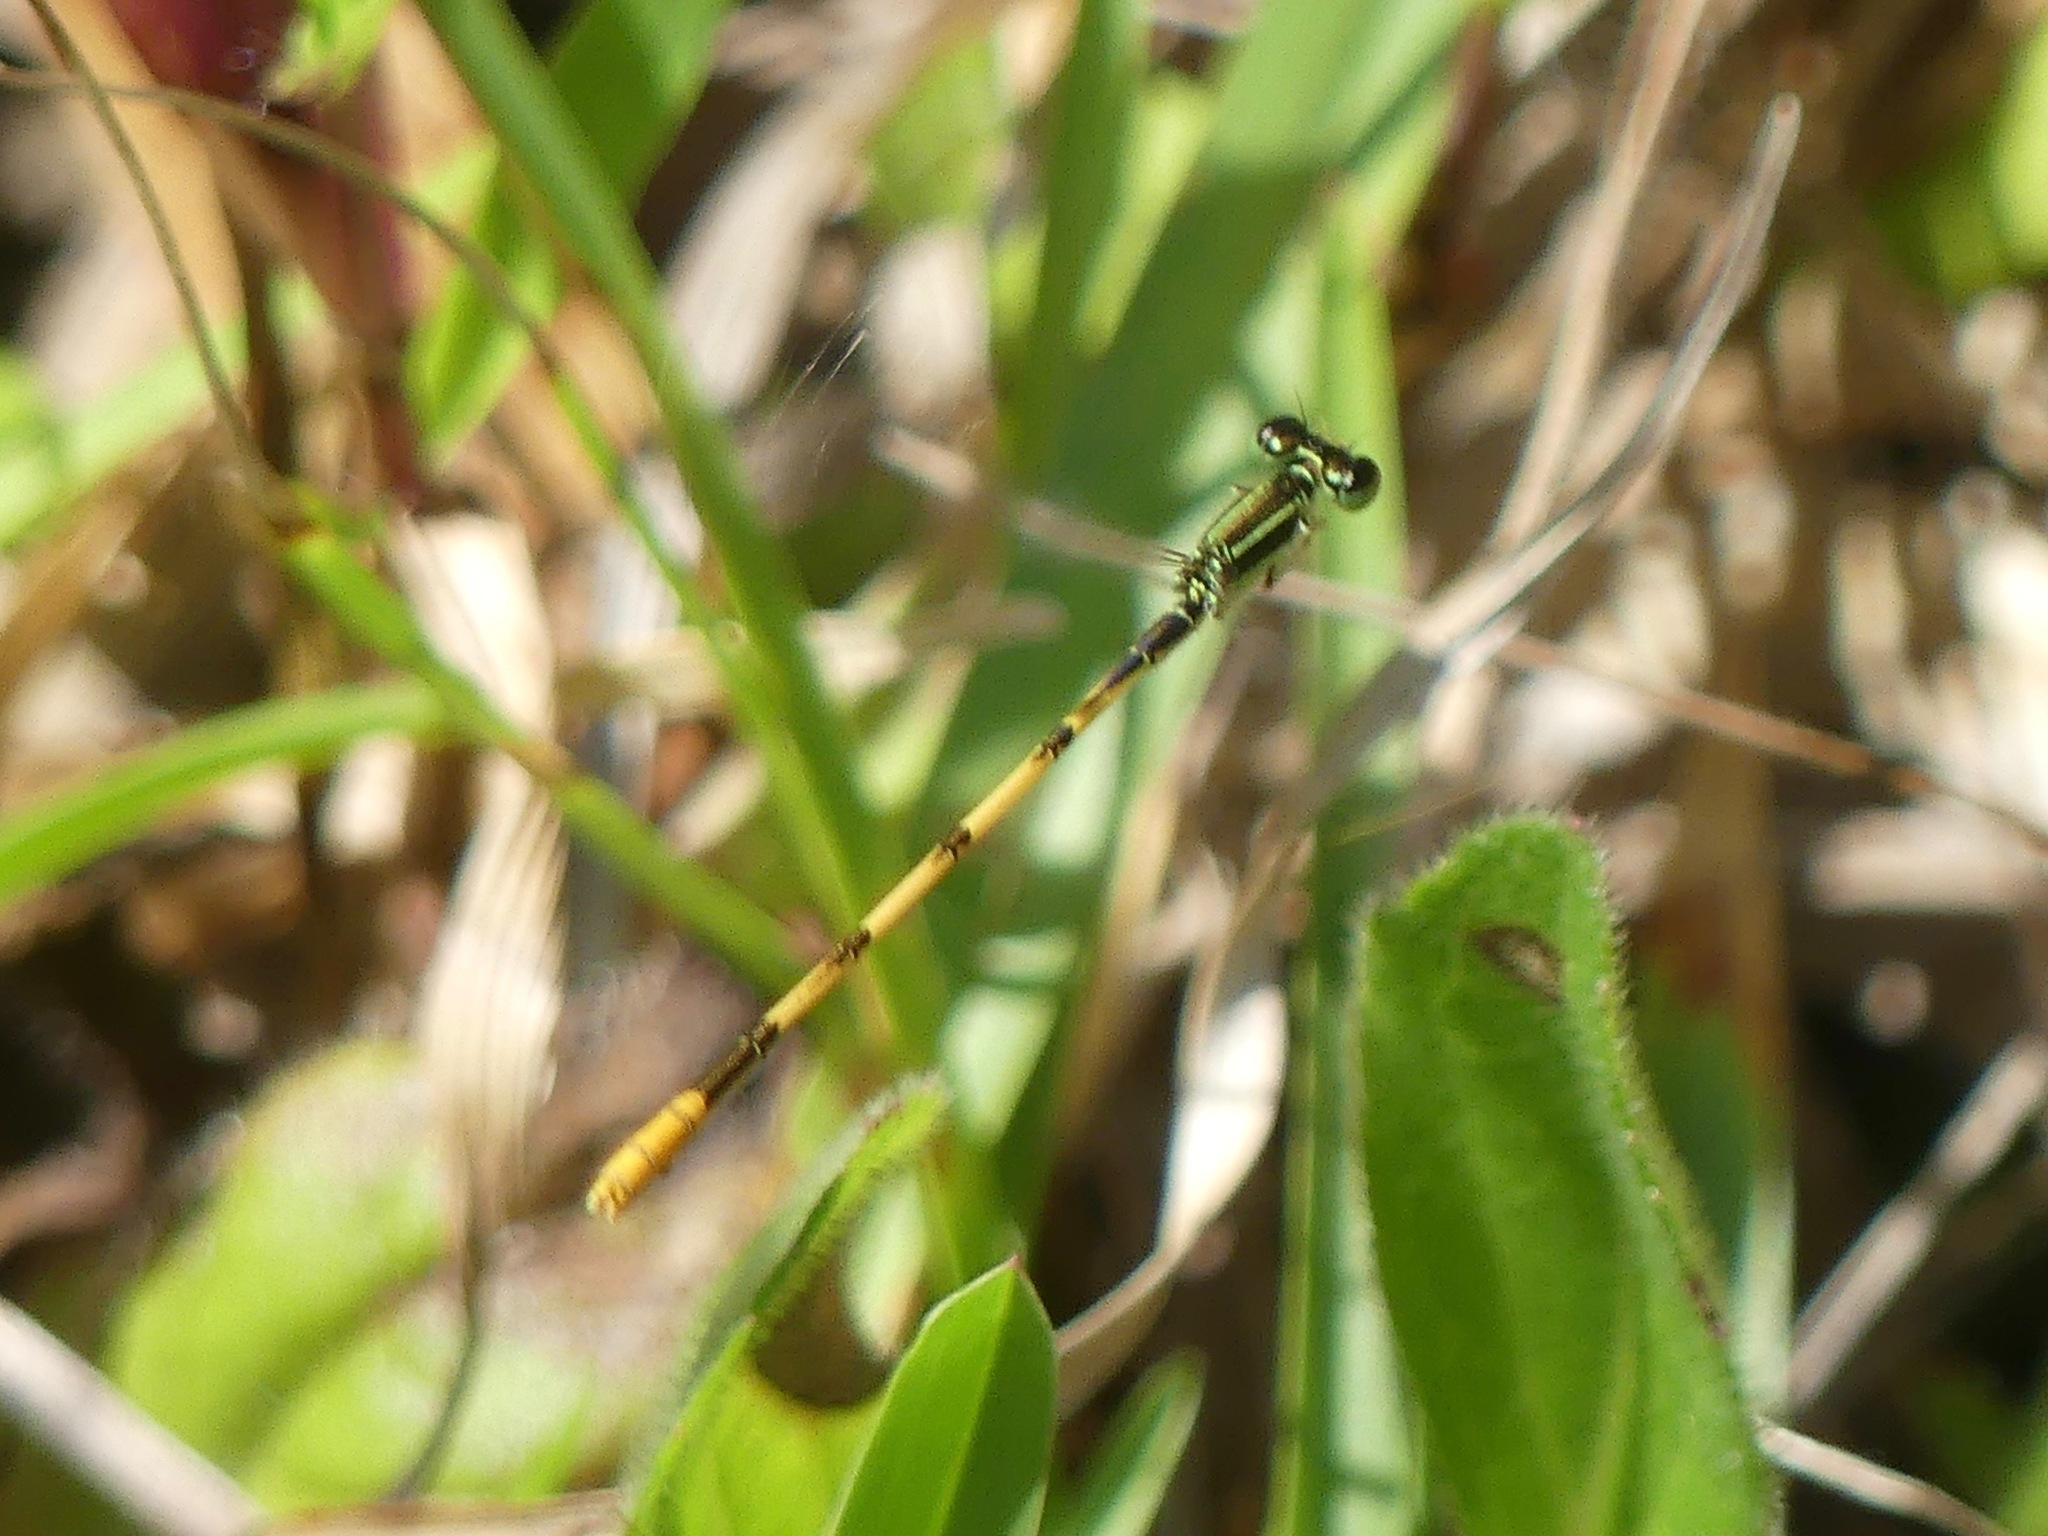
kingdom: Animalia
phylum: Arthropoda
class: Insecta
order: Odonata
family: Coenagrionidae
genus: Ischnura
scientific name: Ischnura hastata
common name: Citrine forktail
